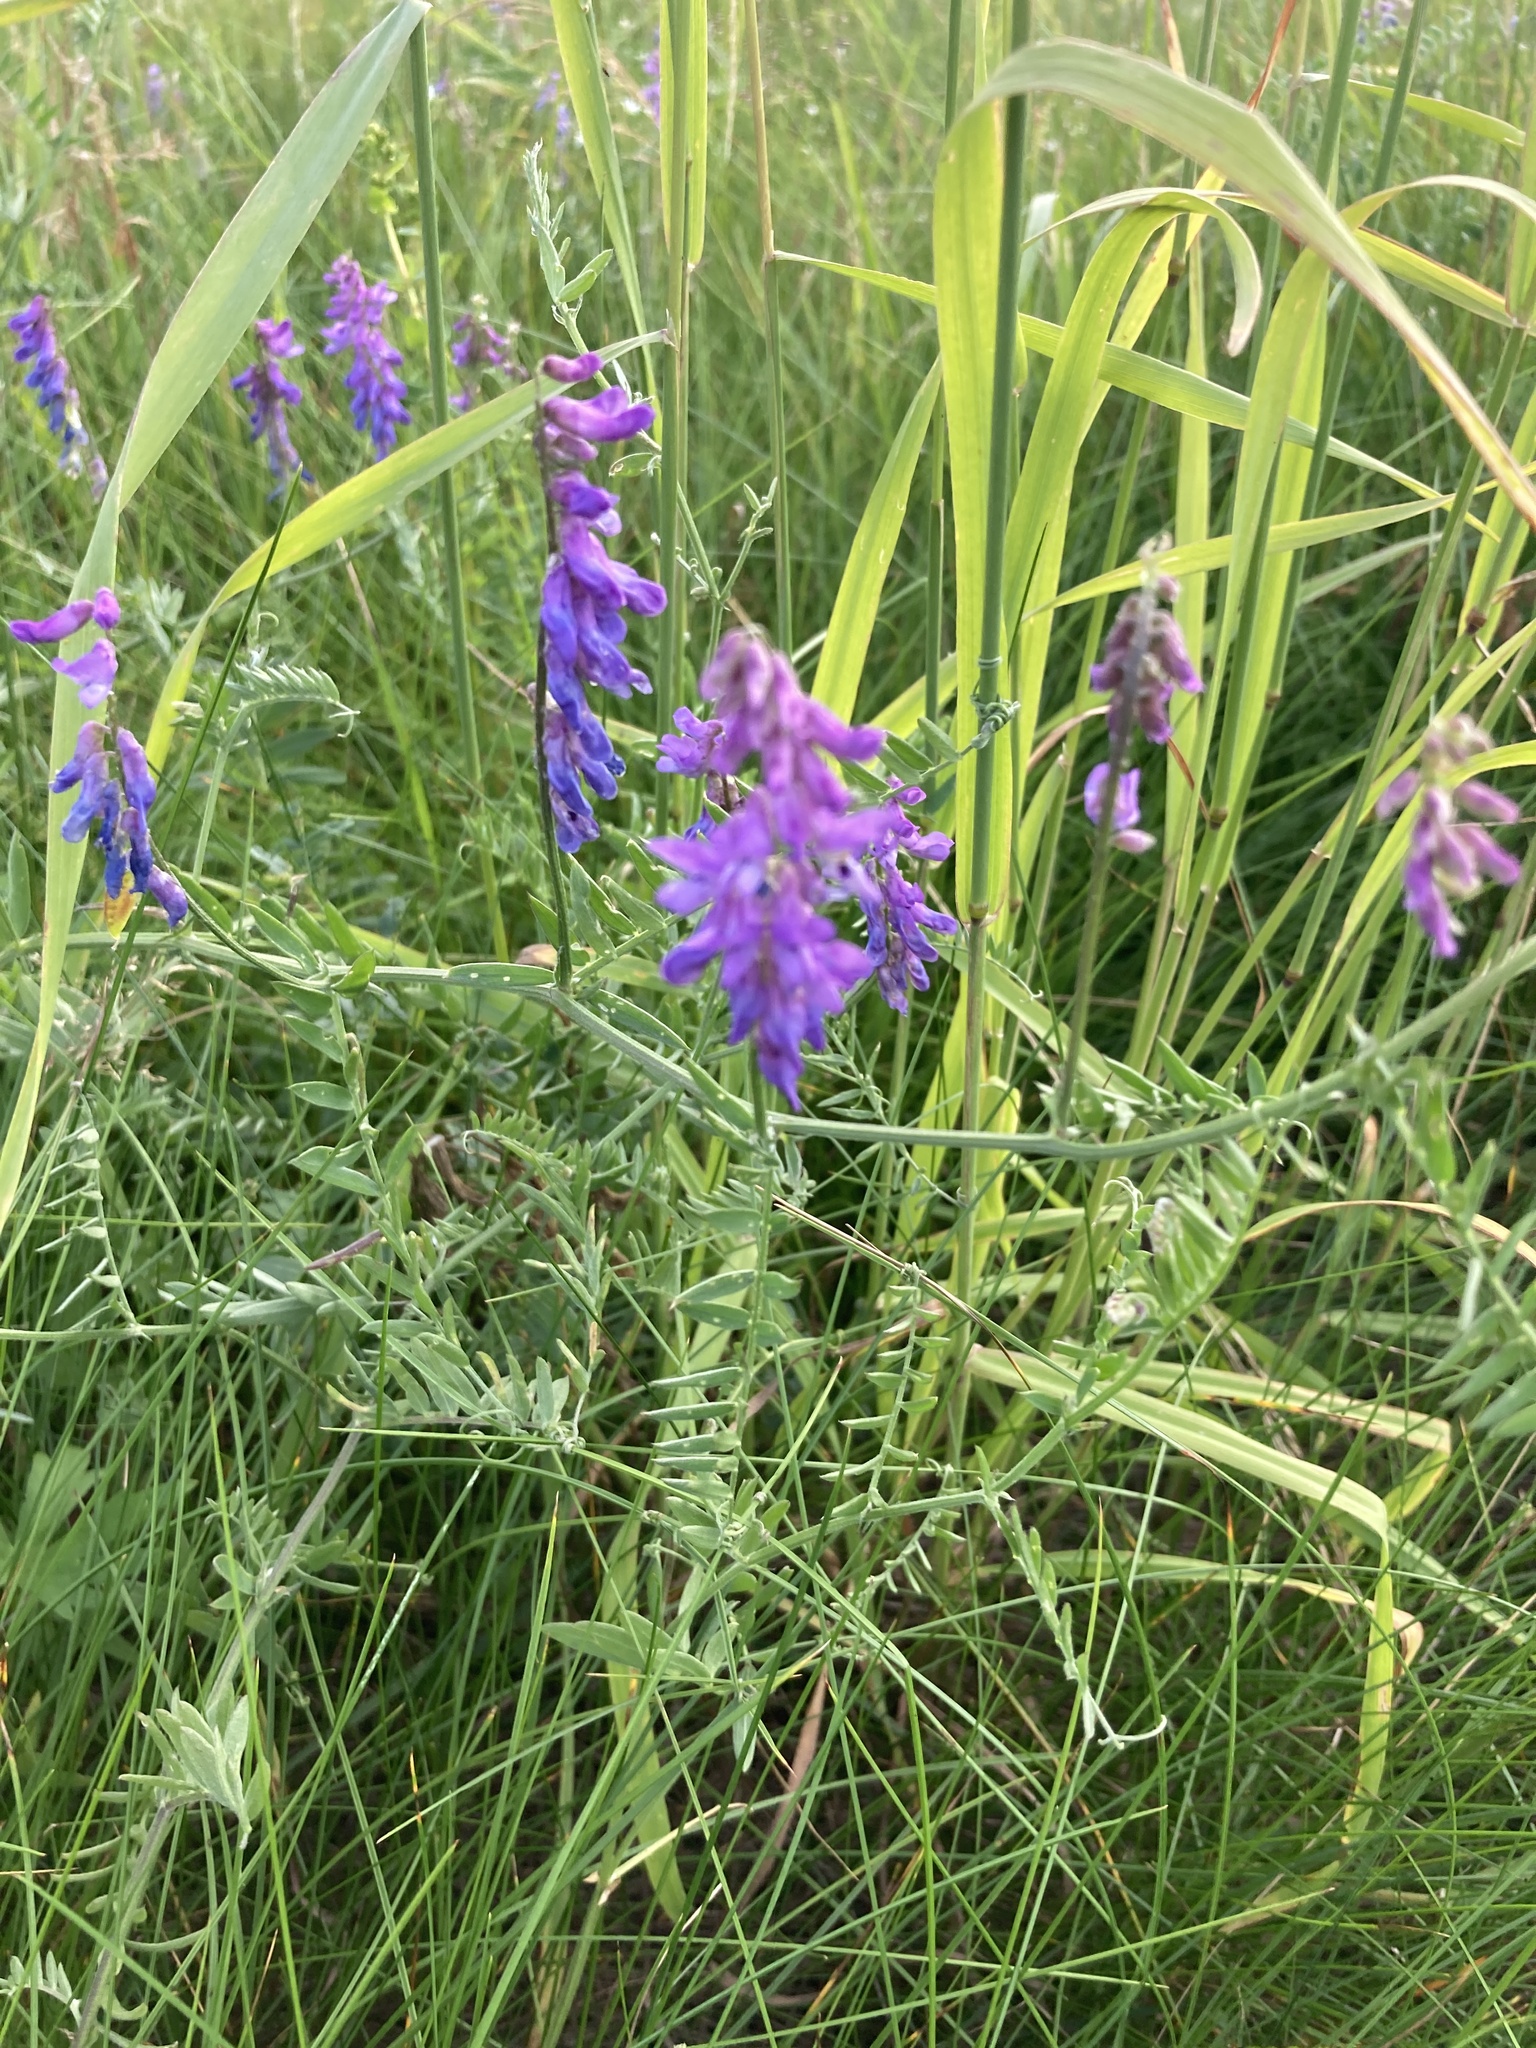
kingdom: Plantae
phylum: Tracheophyta
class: Magnoliopsida
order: Fabales
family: Fabaceae
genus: Vicia
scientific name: Vicia cracca
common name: Bird vetch
